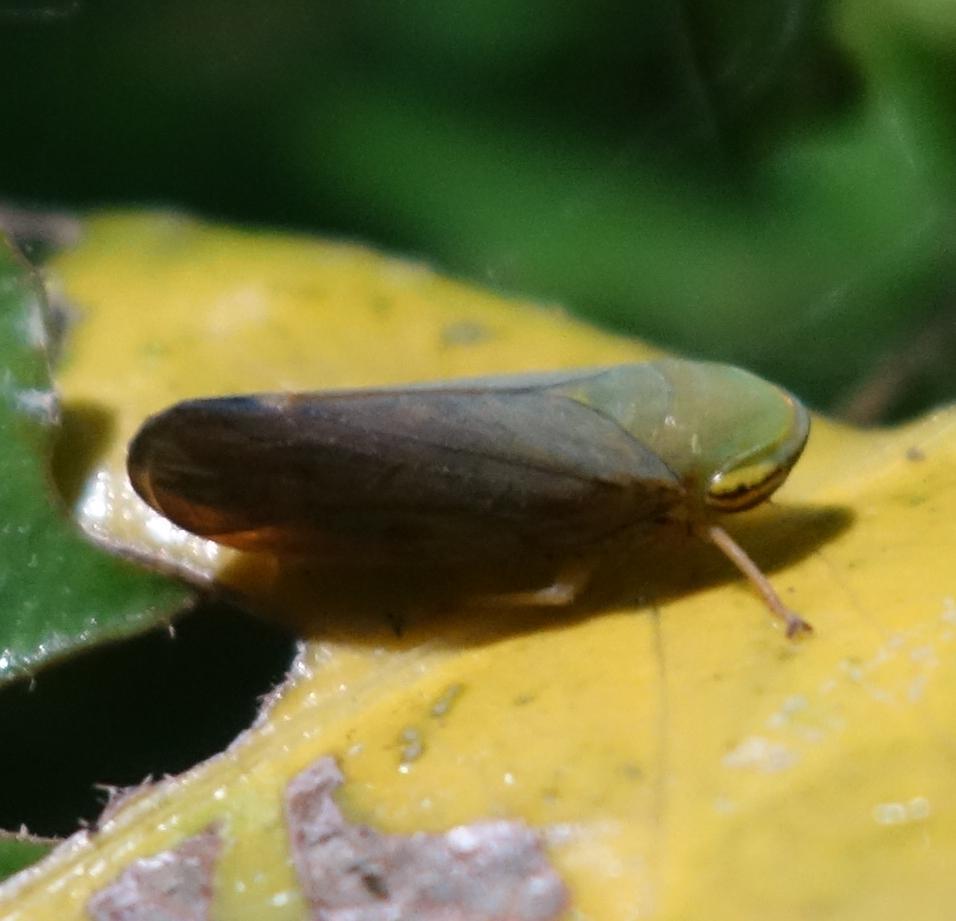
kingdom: Animalia
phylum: Arthropoda
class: Insecta
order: Hemiptera
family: Cicadellidae
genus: Tartessus
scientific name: Tartessus ferrugineus
